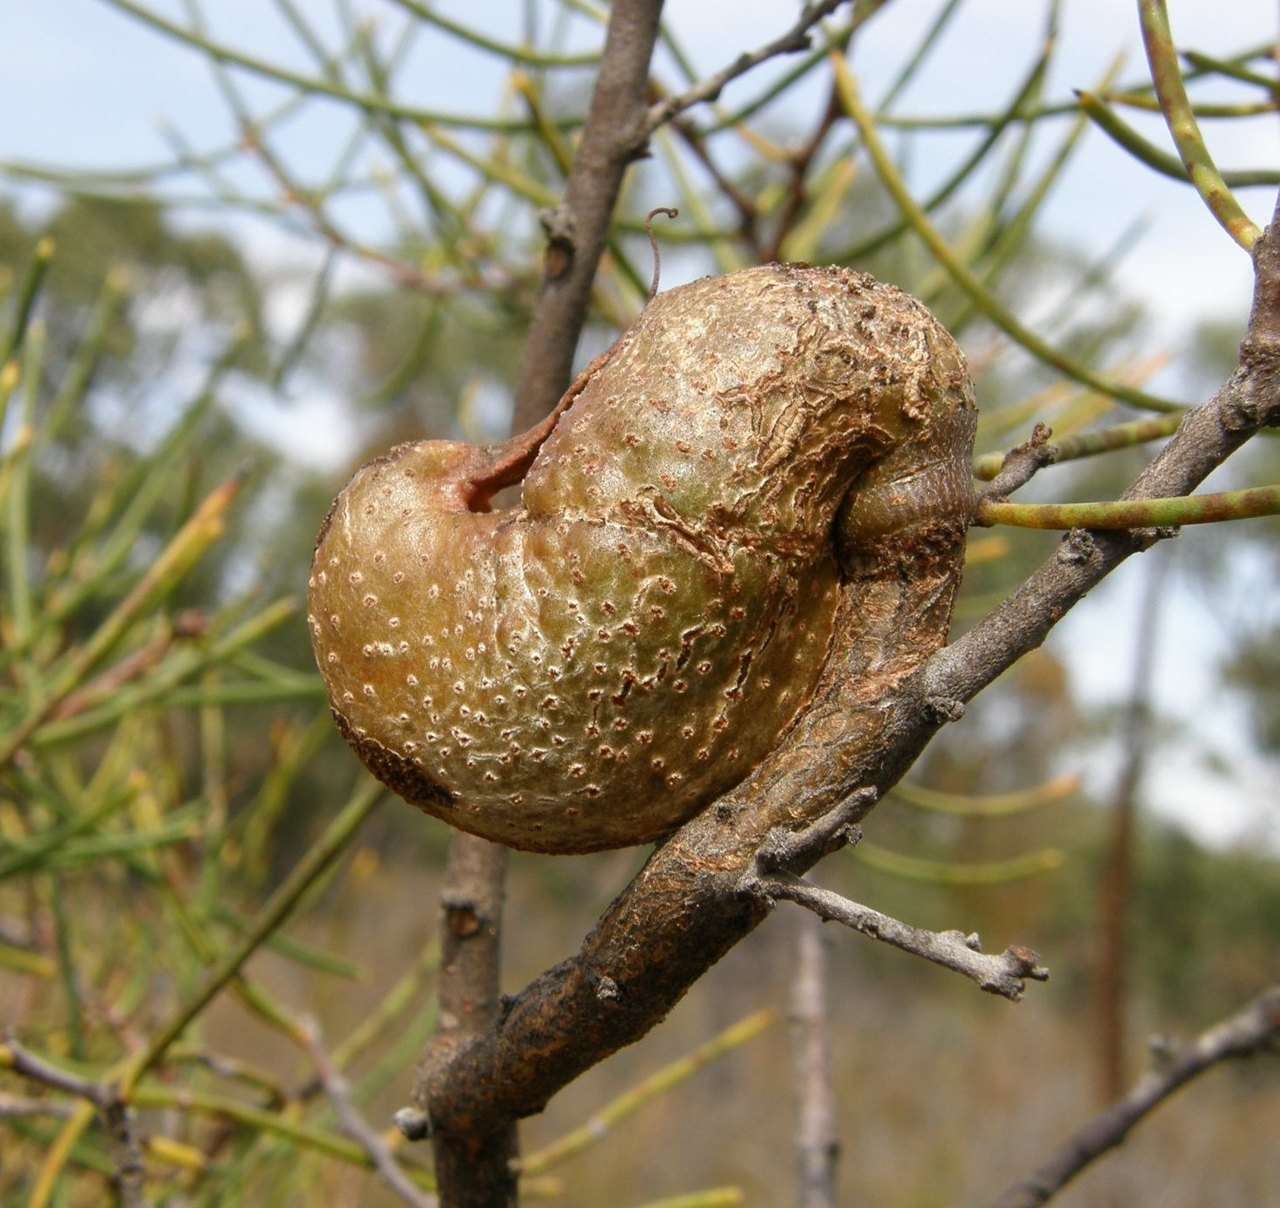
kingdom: Plantae
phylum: Tracheophyta
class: Magnoliopsida
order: Proteales
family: Proteaceae
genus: Hakea
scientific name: Hakea rostrata
